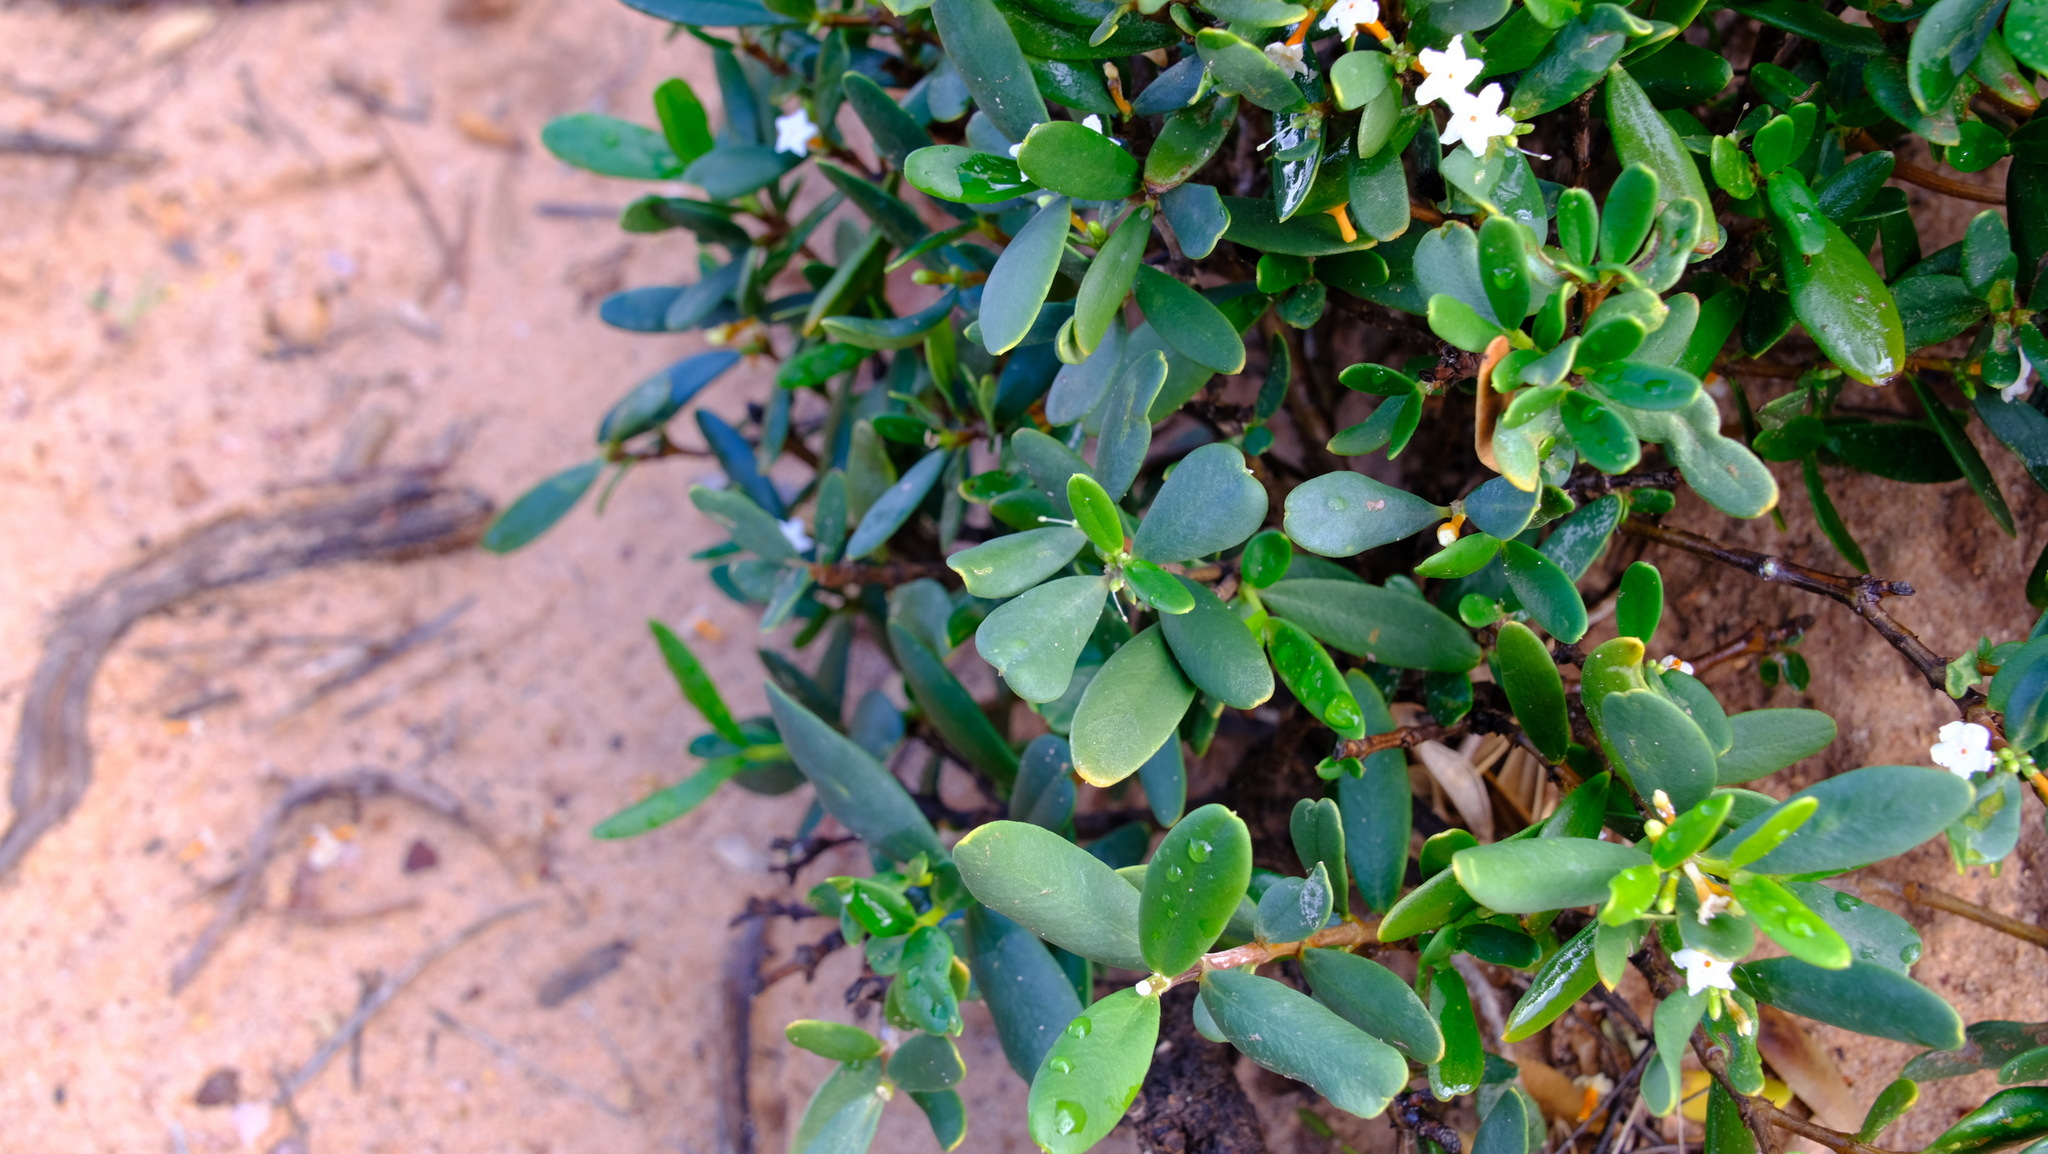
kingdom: Plantae
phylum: Tracheophyta
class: Magnoliopsida
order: Gentianales
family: Apocynaceae
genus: Alyxia
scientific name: Alyxia buxifolia
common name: Dysentery-bush
